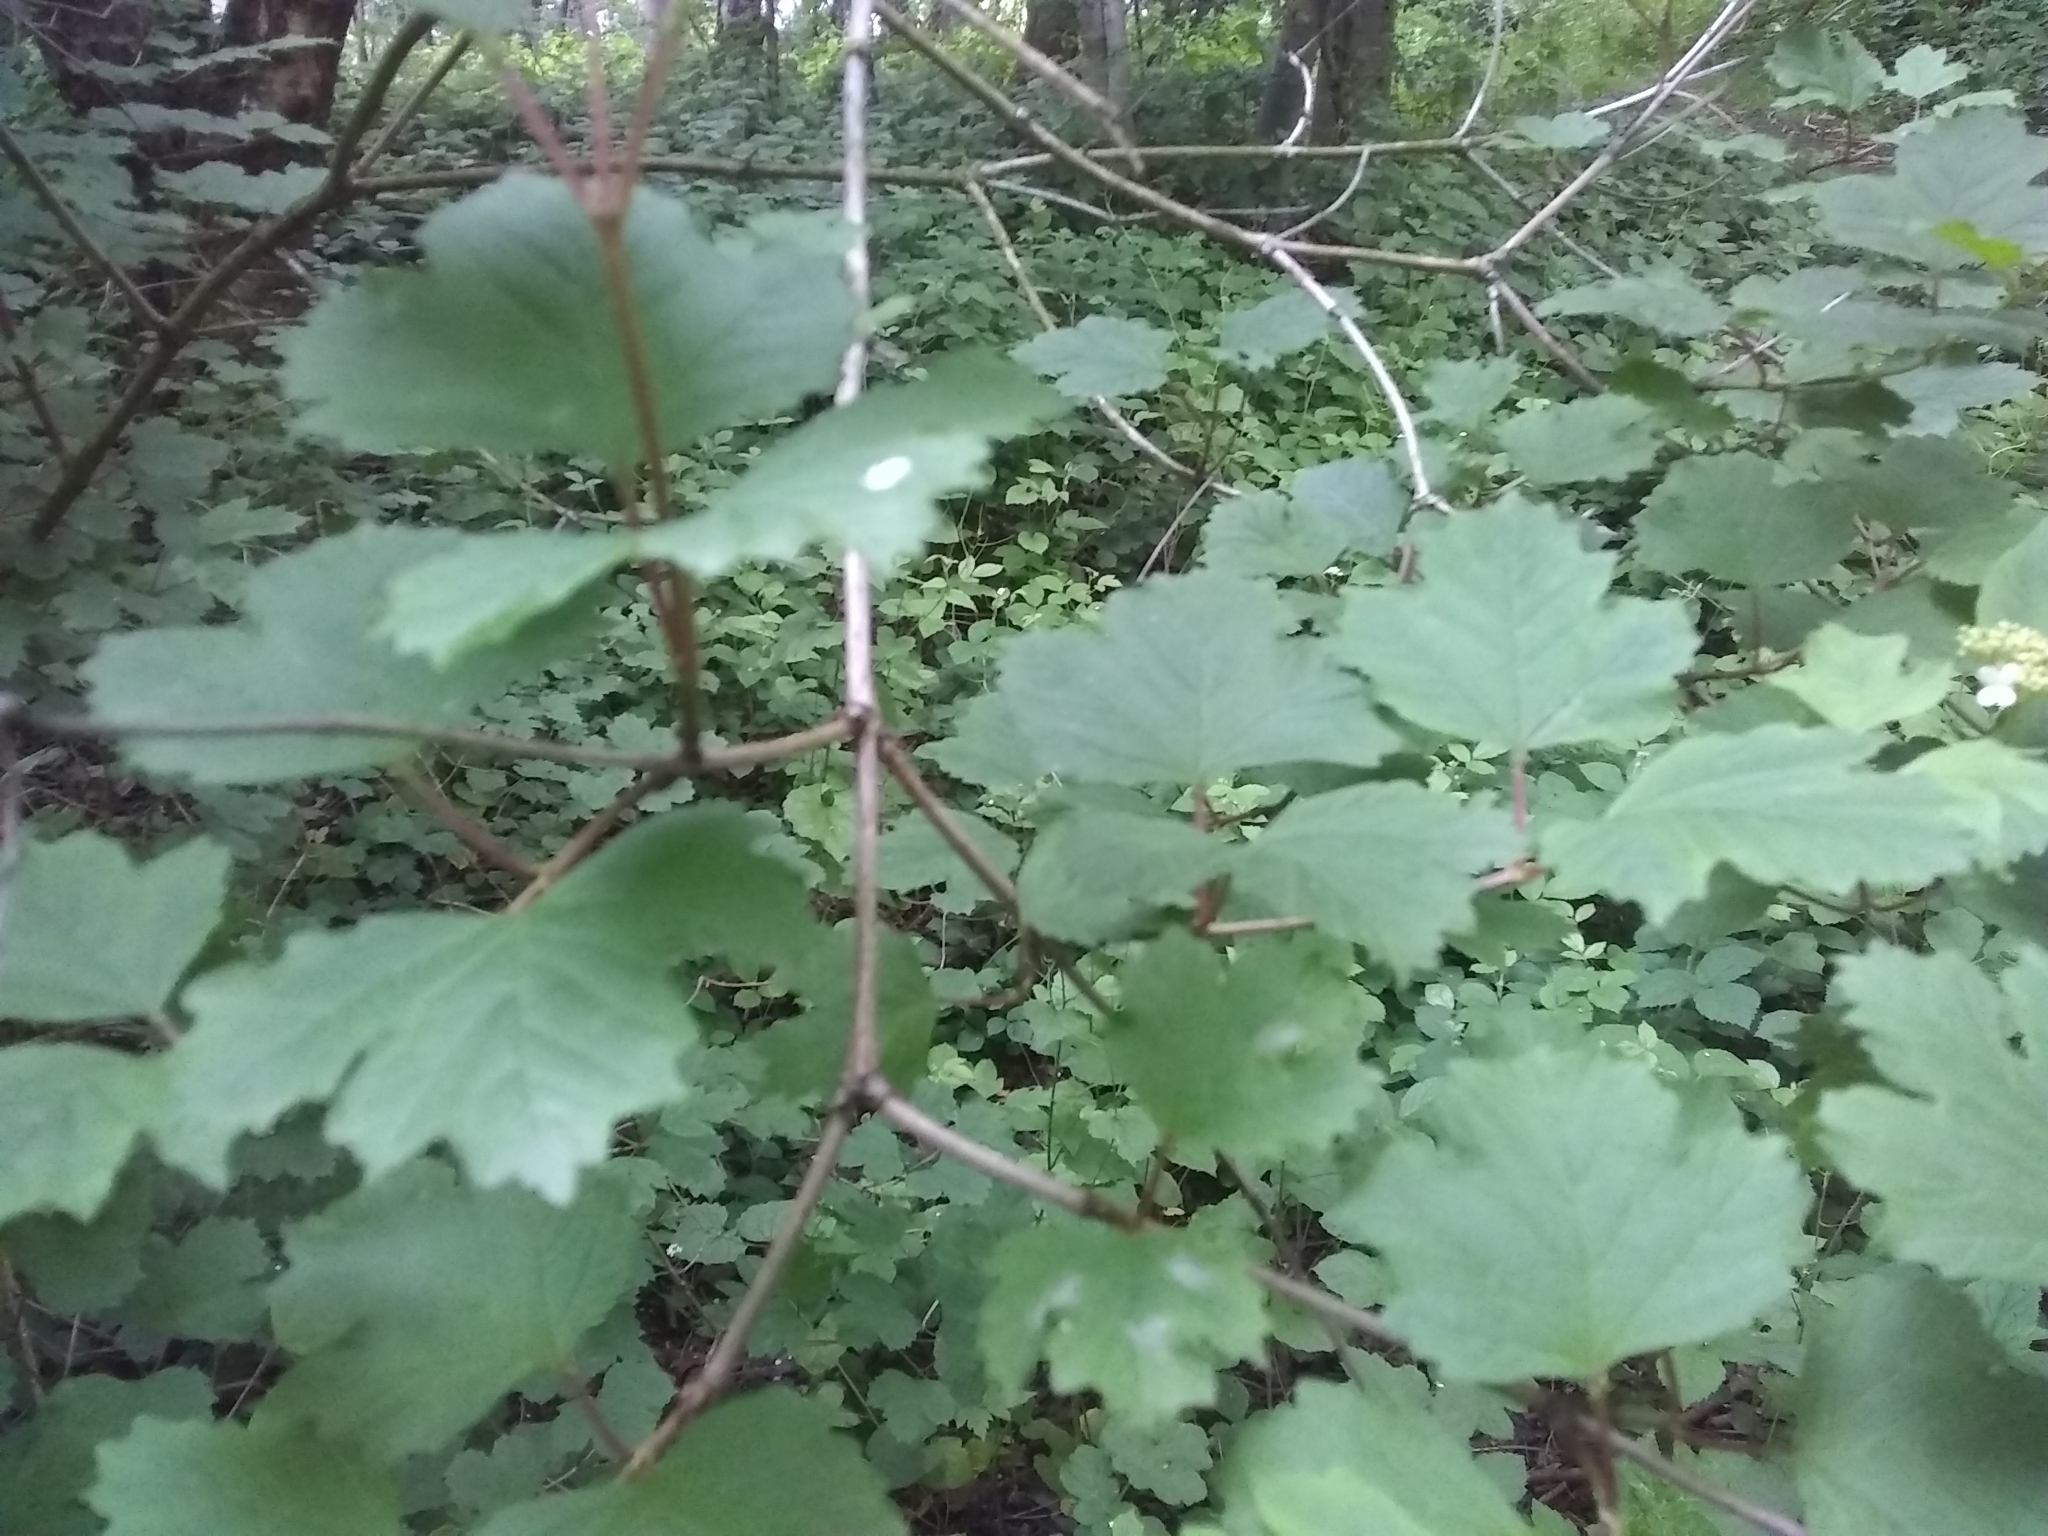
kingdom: Plantae
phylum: Tracheophyta
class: Magnoliopsida
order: Dipsacales
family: Viburnaceae
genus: Viburnum
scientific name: Viburnum opulus
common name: Guelder-rose
